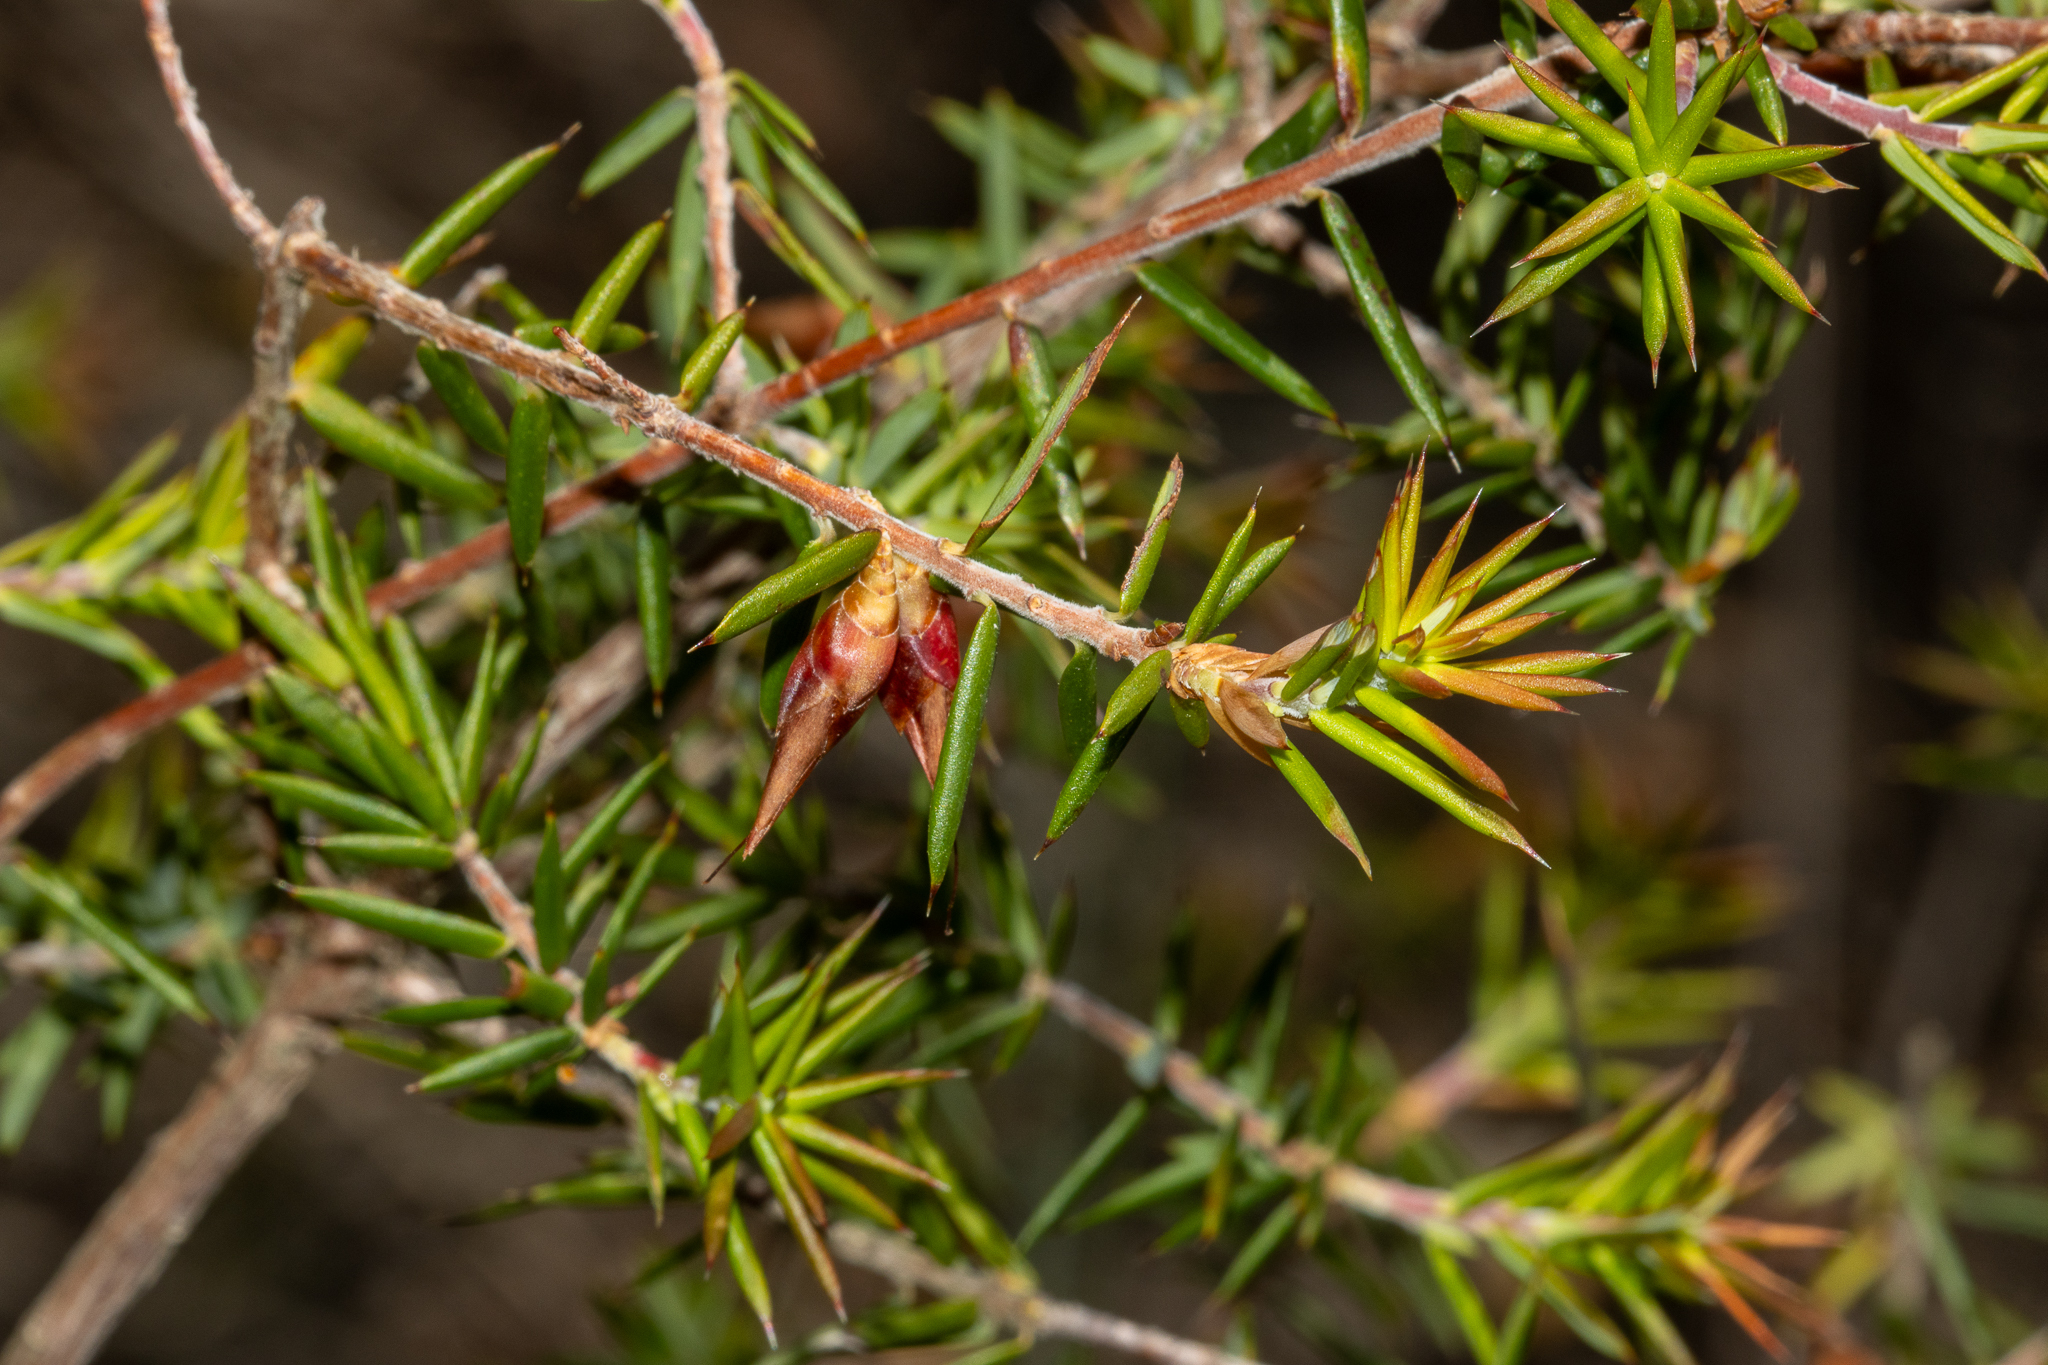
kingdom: Plantae
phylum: Tracheophyta
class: Magnoliopsida
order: Ericales
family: Ericaceae
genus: Stenanthera
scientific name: Stenanthera conostephioides
